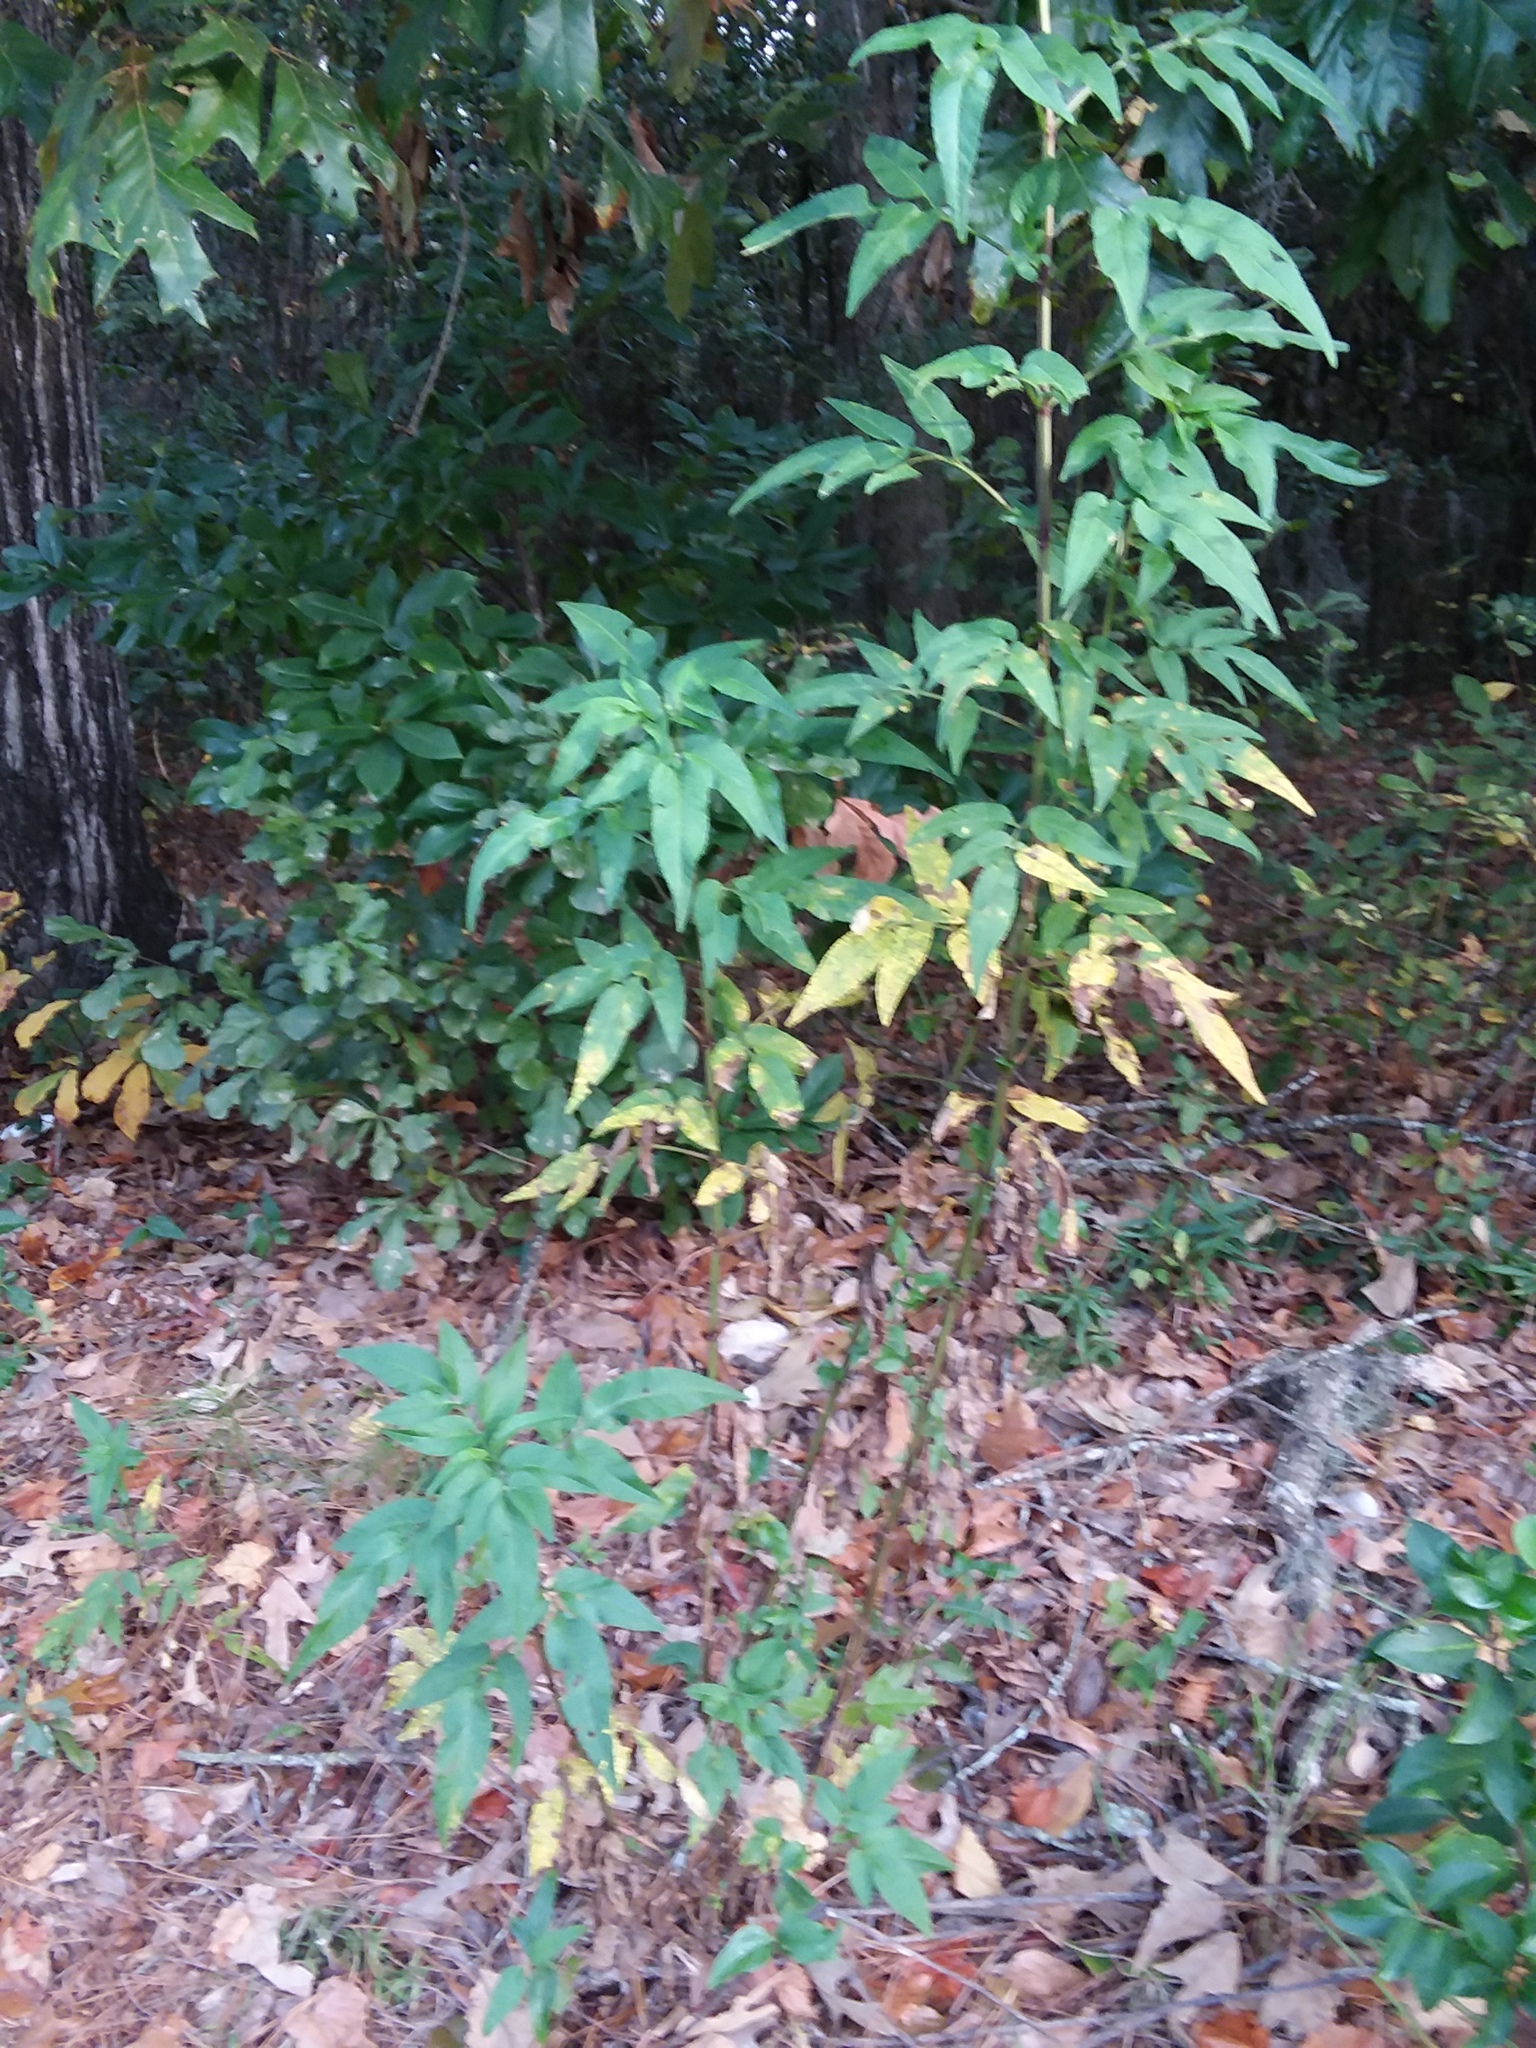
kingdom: Plantae
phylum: Tracheophyta
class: Magnoliopsida
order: Asterales
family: Asteraceae
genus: Bidens
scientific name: Bidens alba
